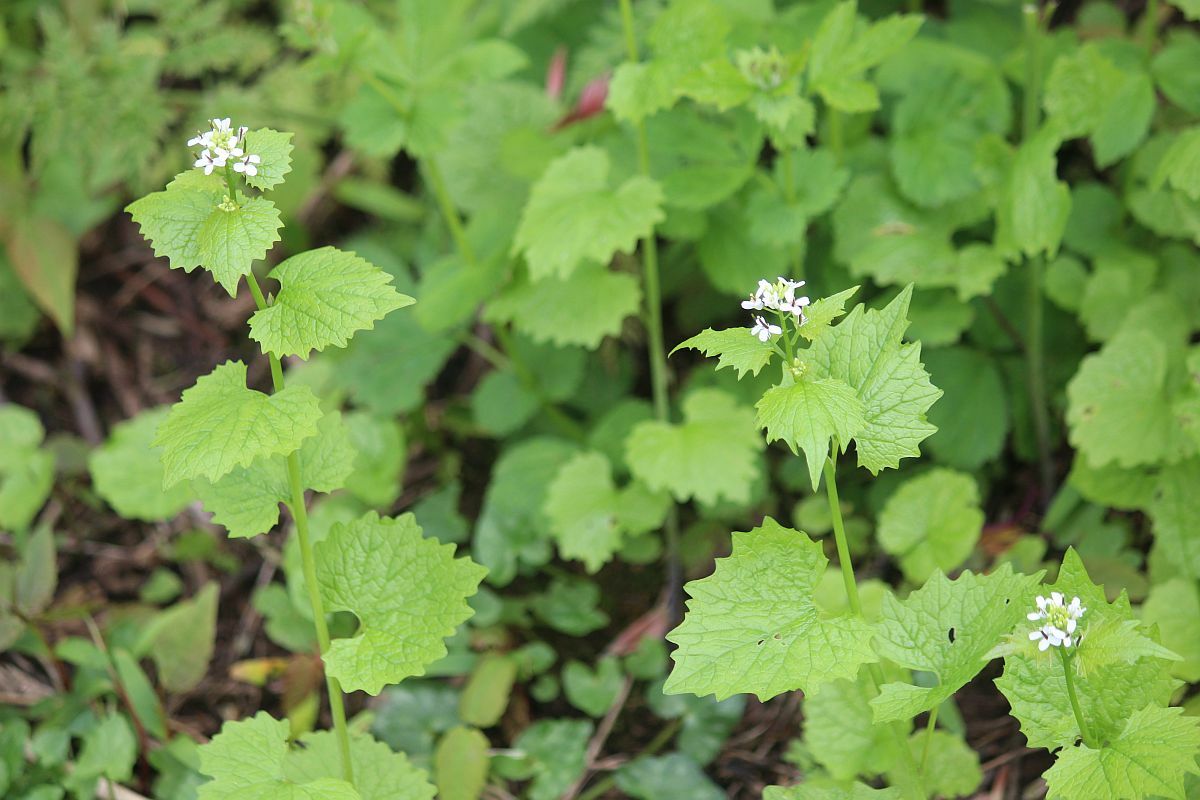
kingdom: Plantae
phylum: Tracheophyta
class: Magnoliopsida
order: Brassicales
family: Brassicaceae
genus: Alliaria
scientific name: Alliaria petiolata
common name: Garlic mustard
